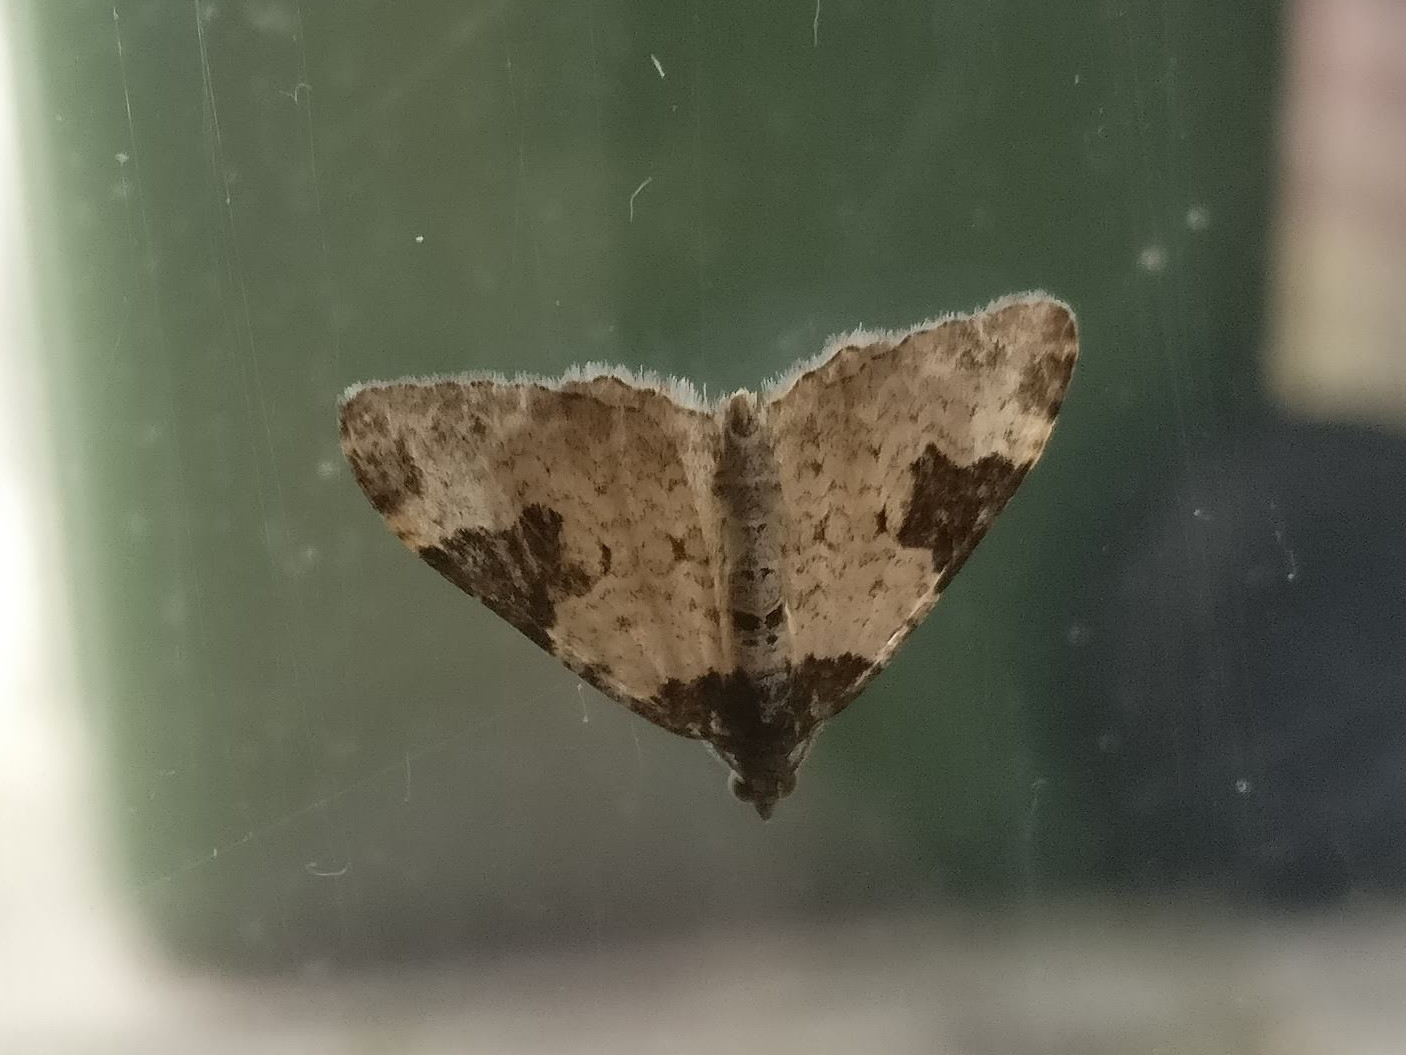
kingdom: Animalia
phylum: Arthropoda
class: Insecta
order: Lepidoptera
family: Geometridae
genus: Xanthorhoe
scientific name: Xanthorhoe fluctuata
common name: Garden carpet
